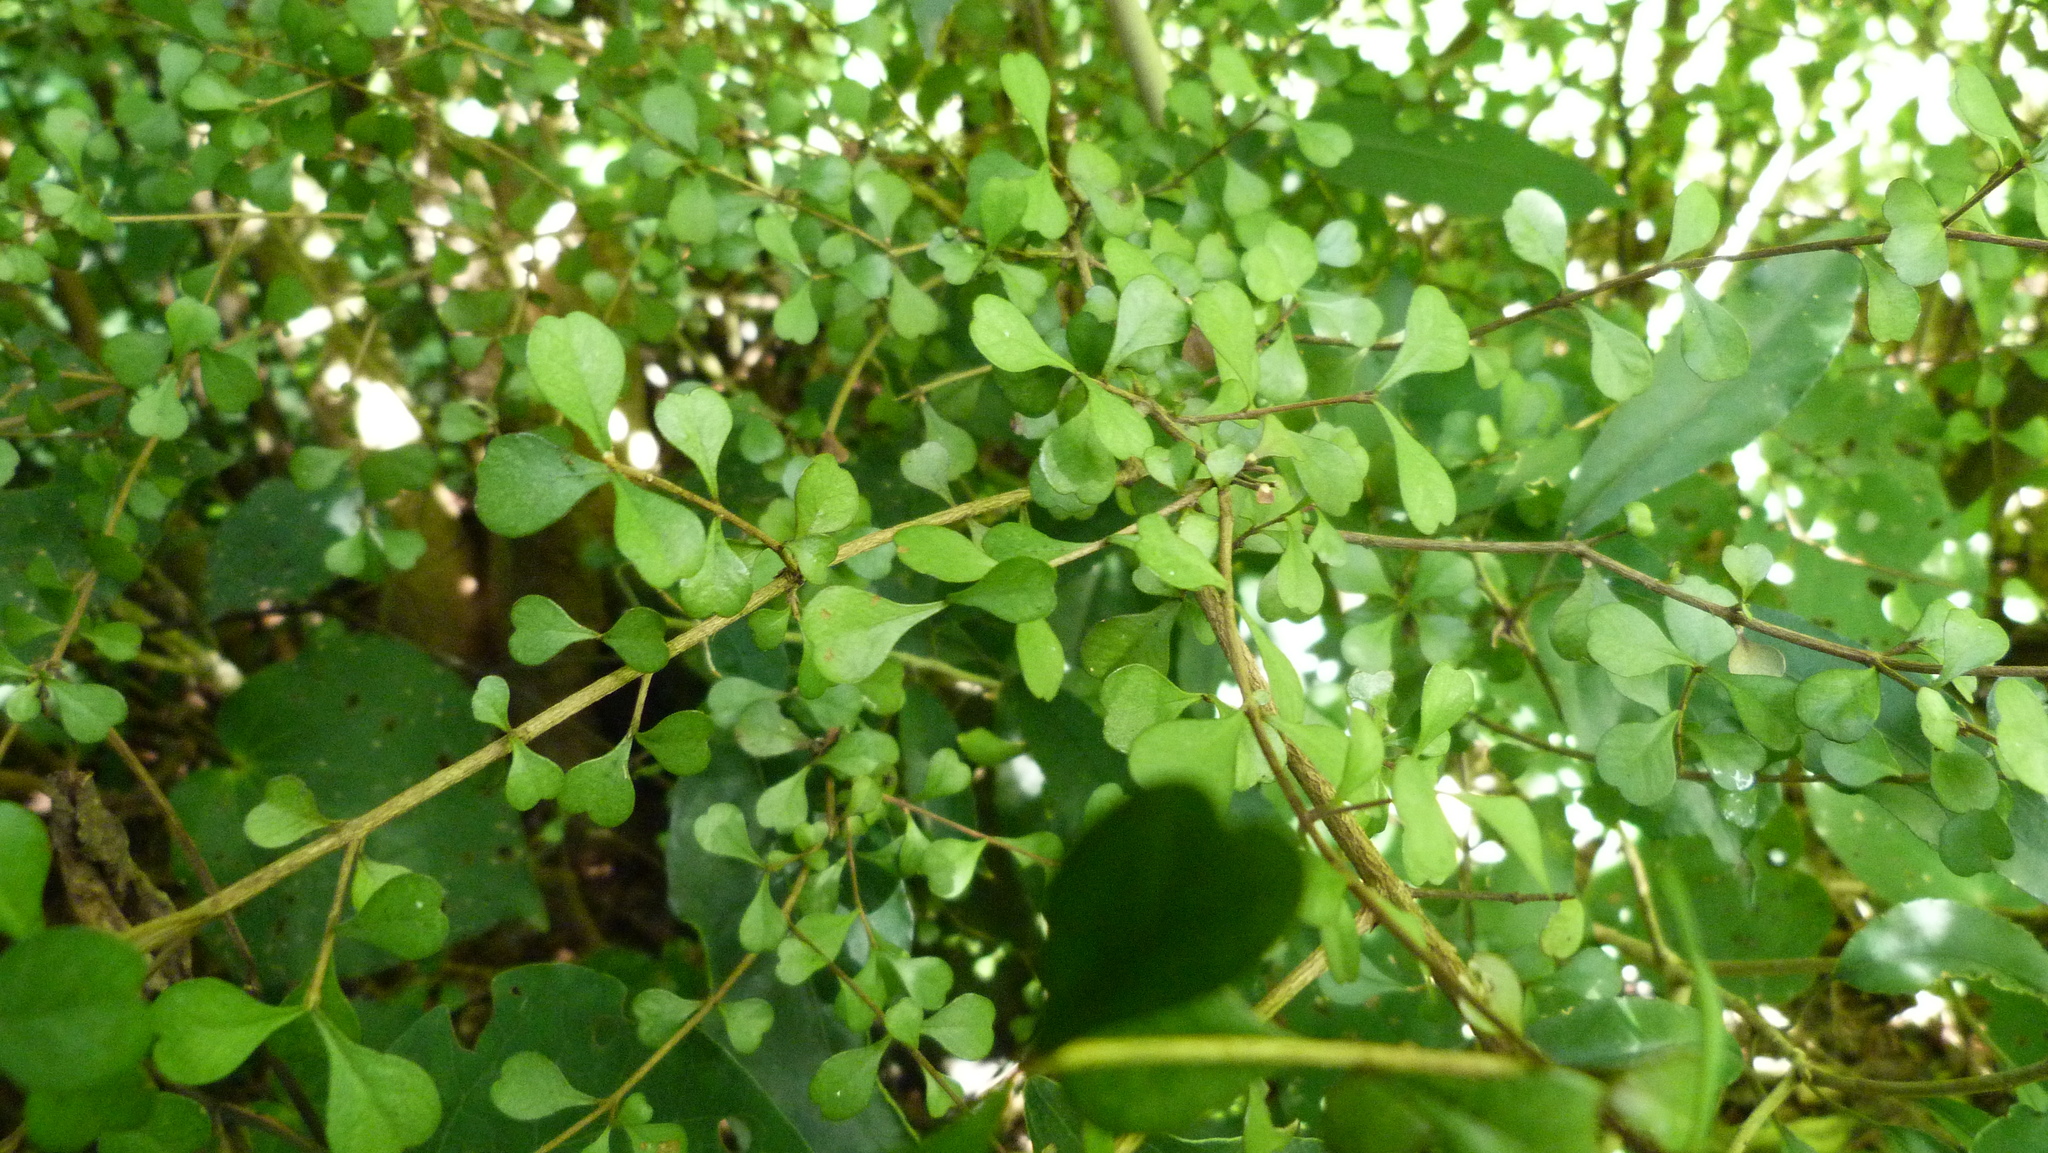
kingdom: Plantae
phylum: Tracheophyta
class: Magnoliopsida
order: Myrtales
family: Myrtaceae
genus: Lophomyrtus
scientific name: Lophomyrtus obcordata
